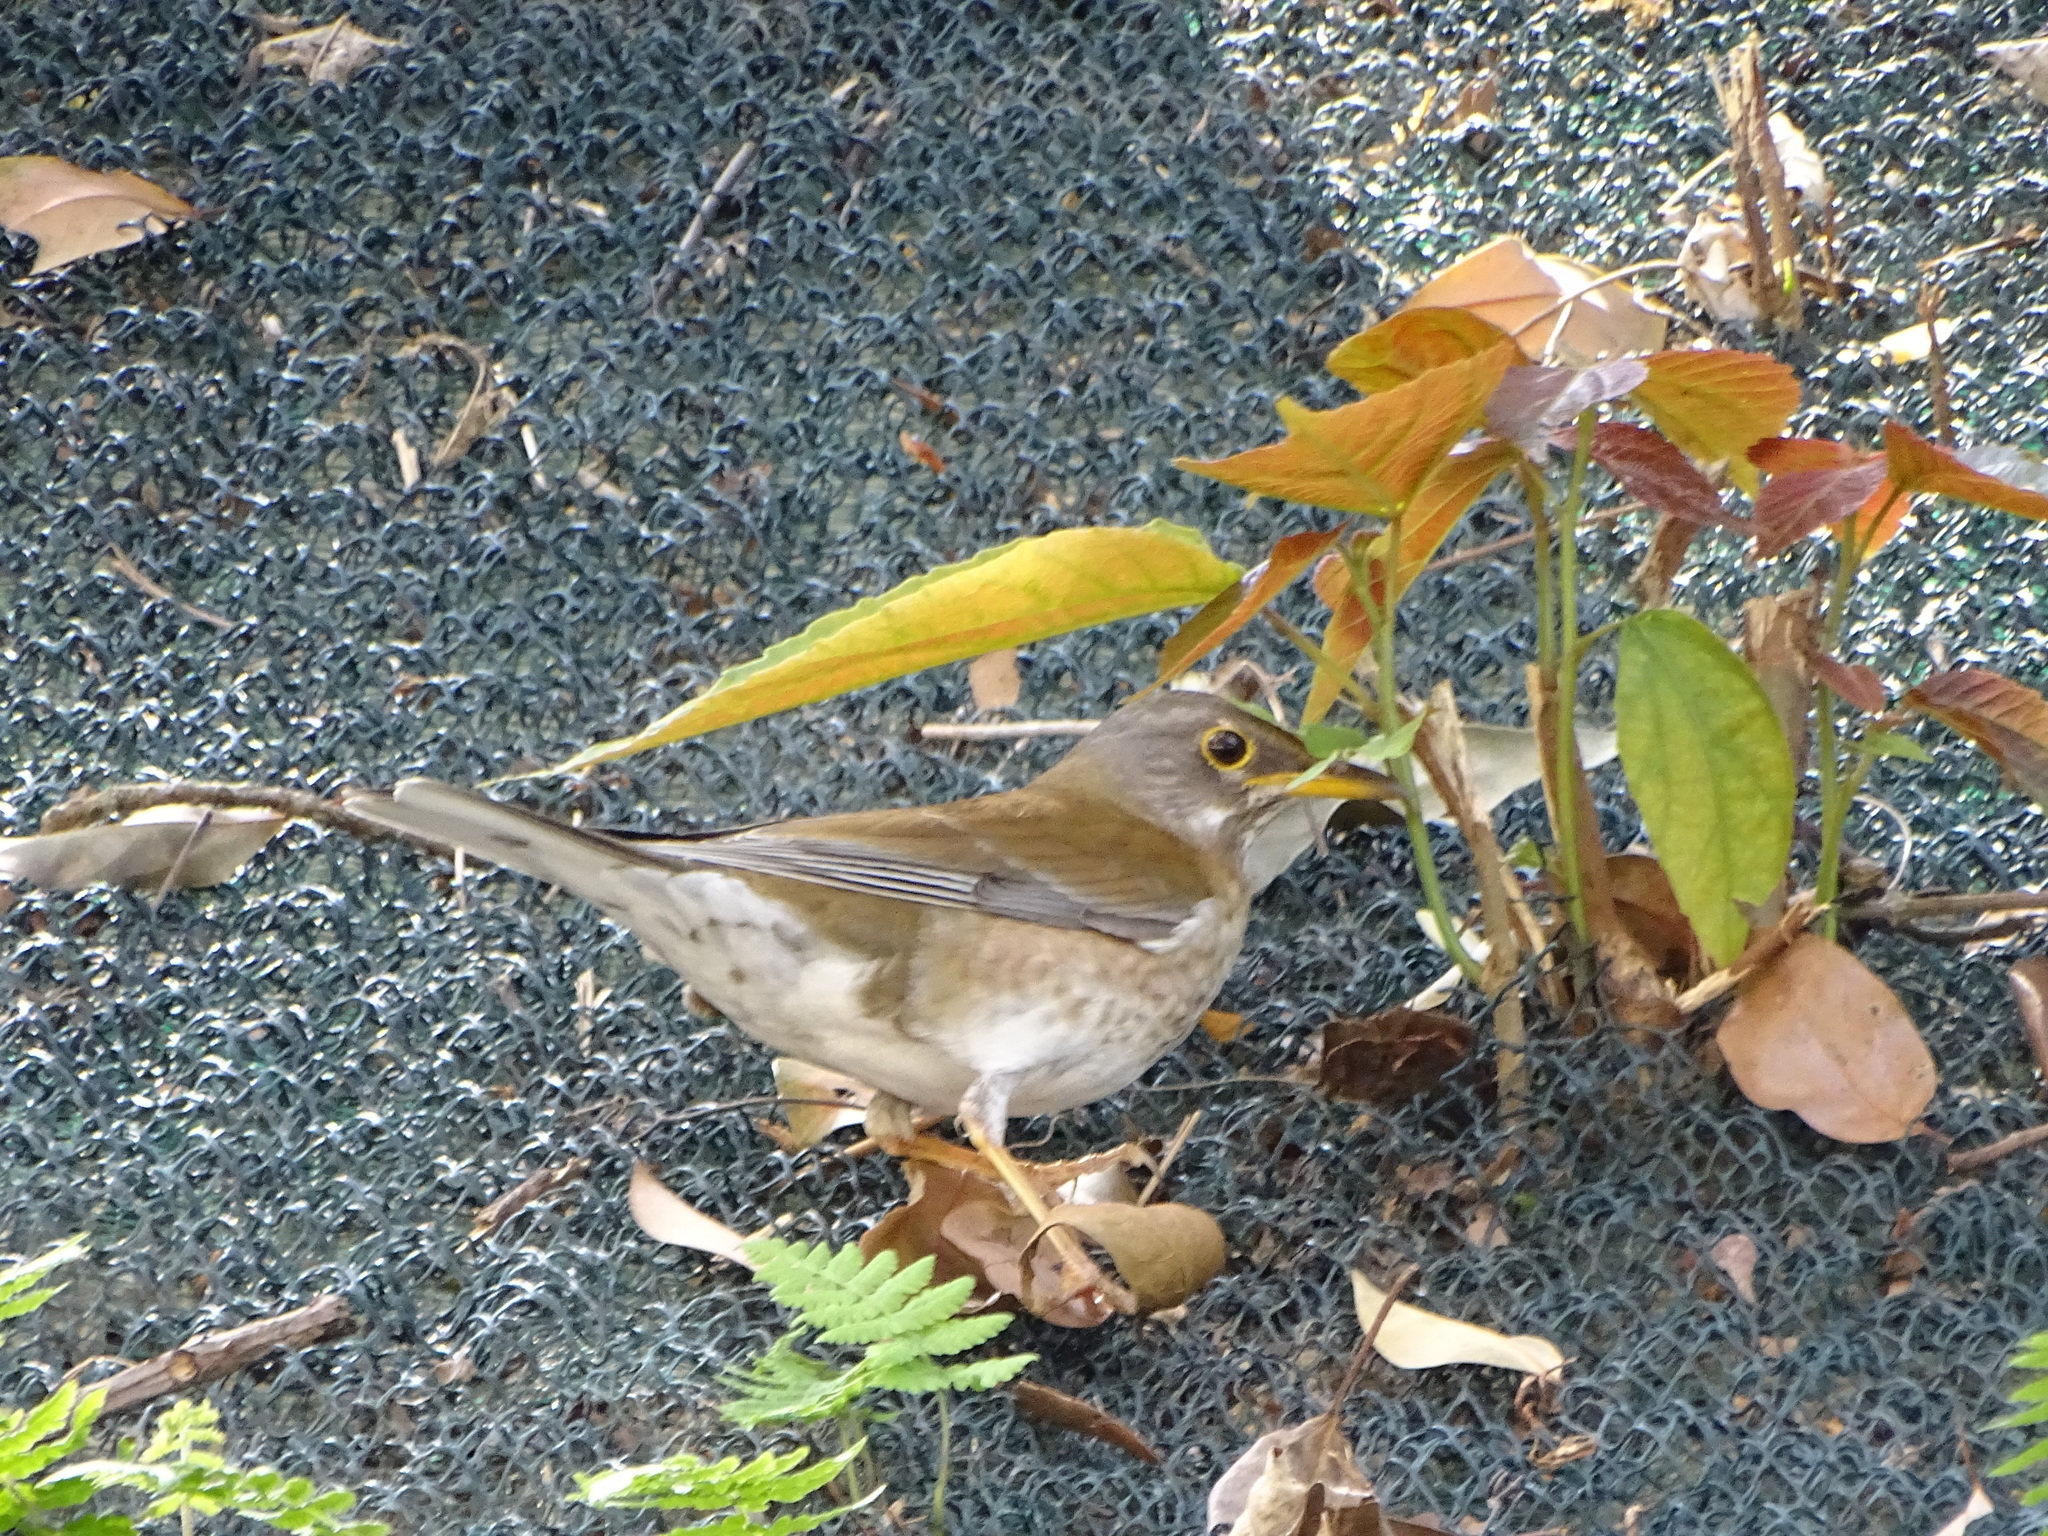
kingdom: Animalia
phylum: Chordata
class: Aves
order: Passeriformes
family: Turdidae
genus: Turdus
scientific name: Turdus pallidus
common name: Pale thrush
